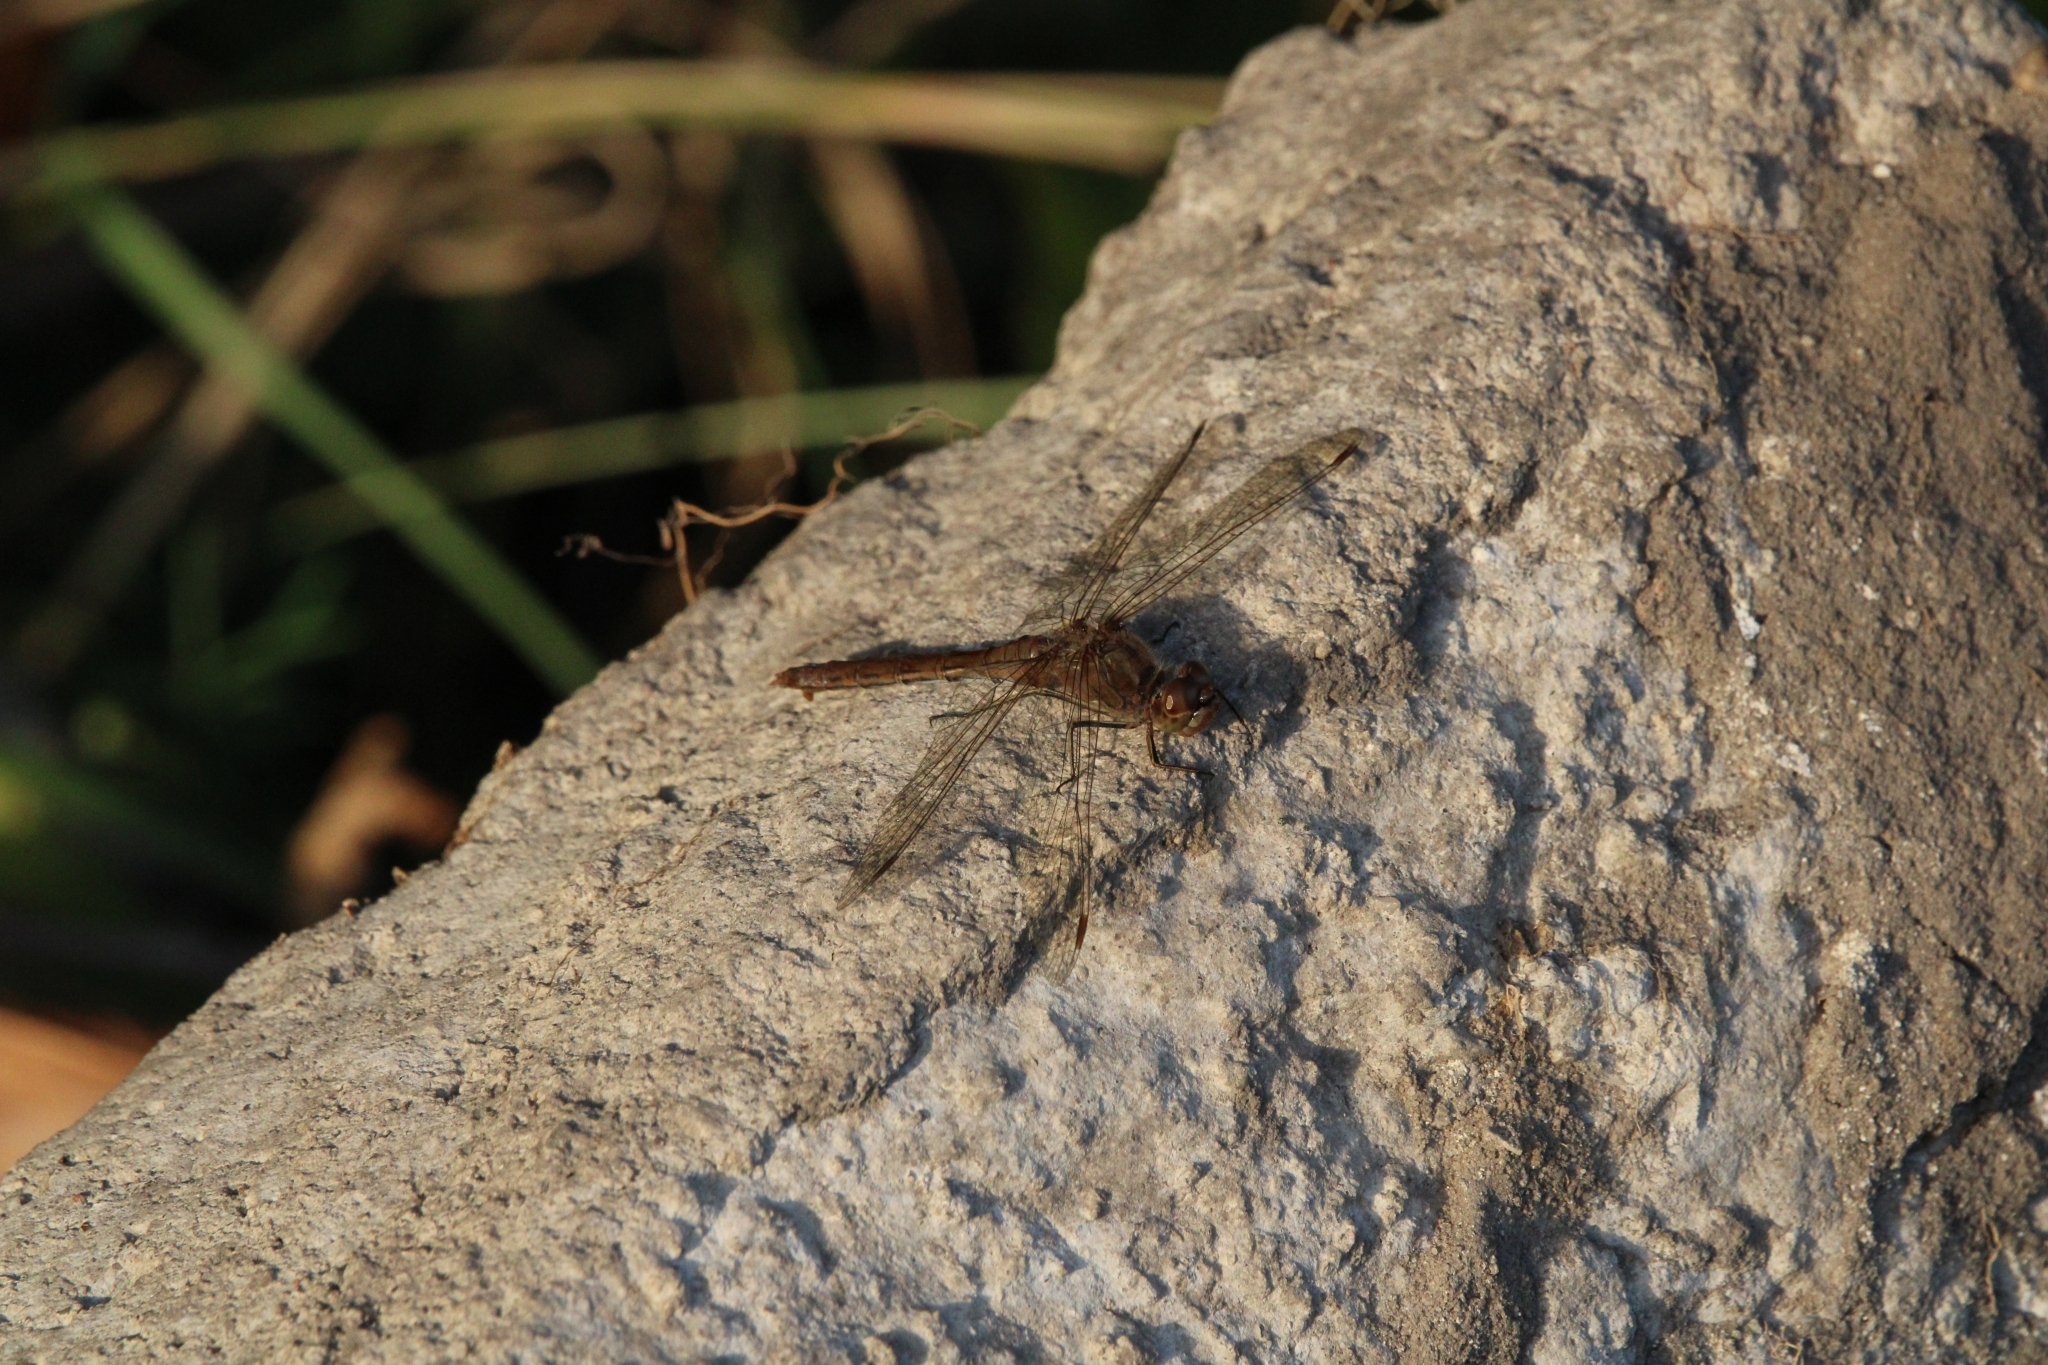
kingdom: Animalia
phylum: Arthropoda
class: Insecta
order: Odonata
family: Libellulidae
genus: Sympetrum
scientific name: Sympetrum vulgatum
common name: Vagrant darter
